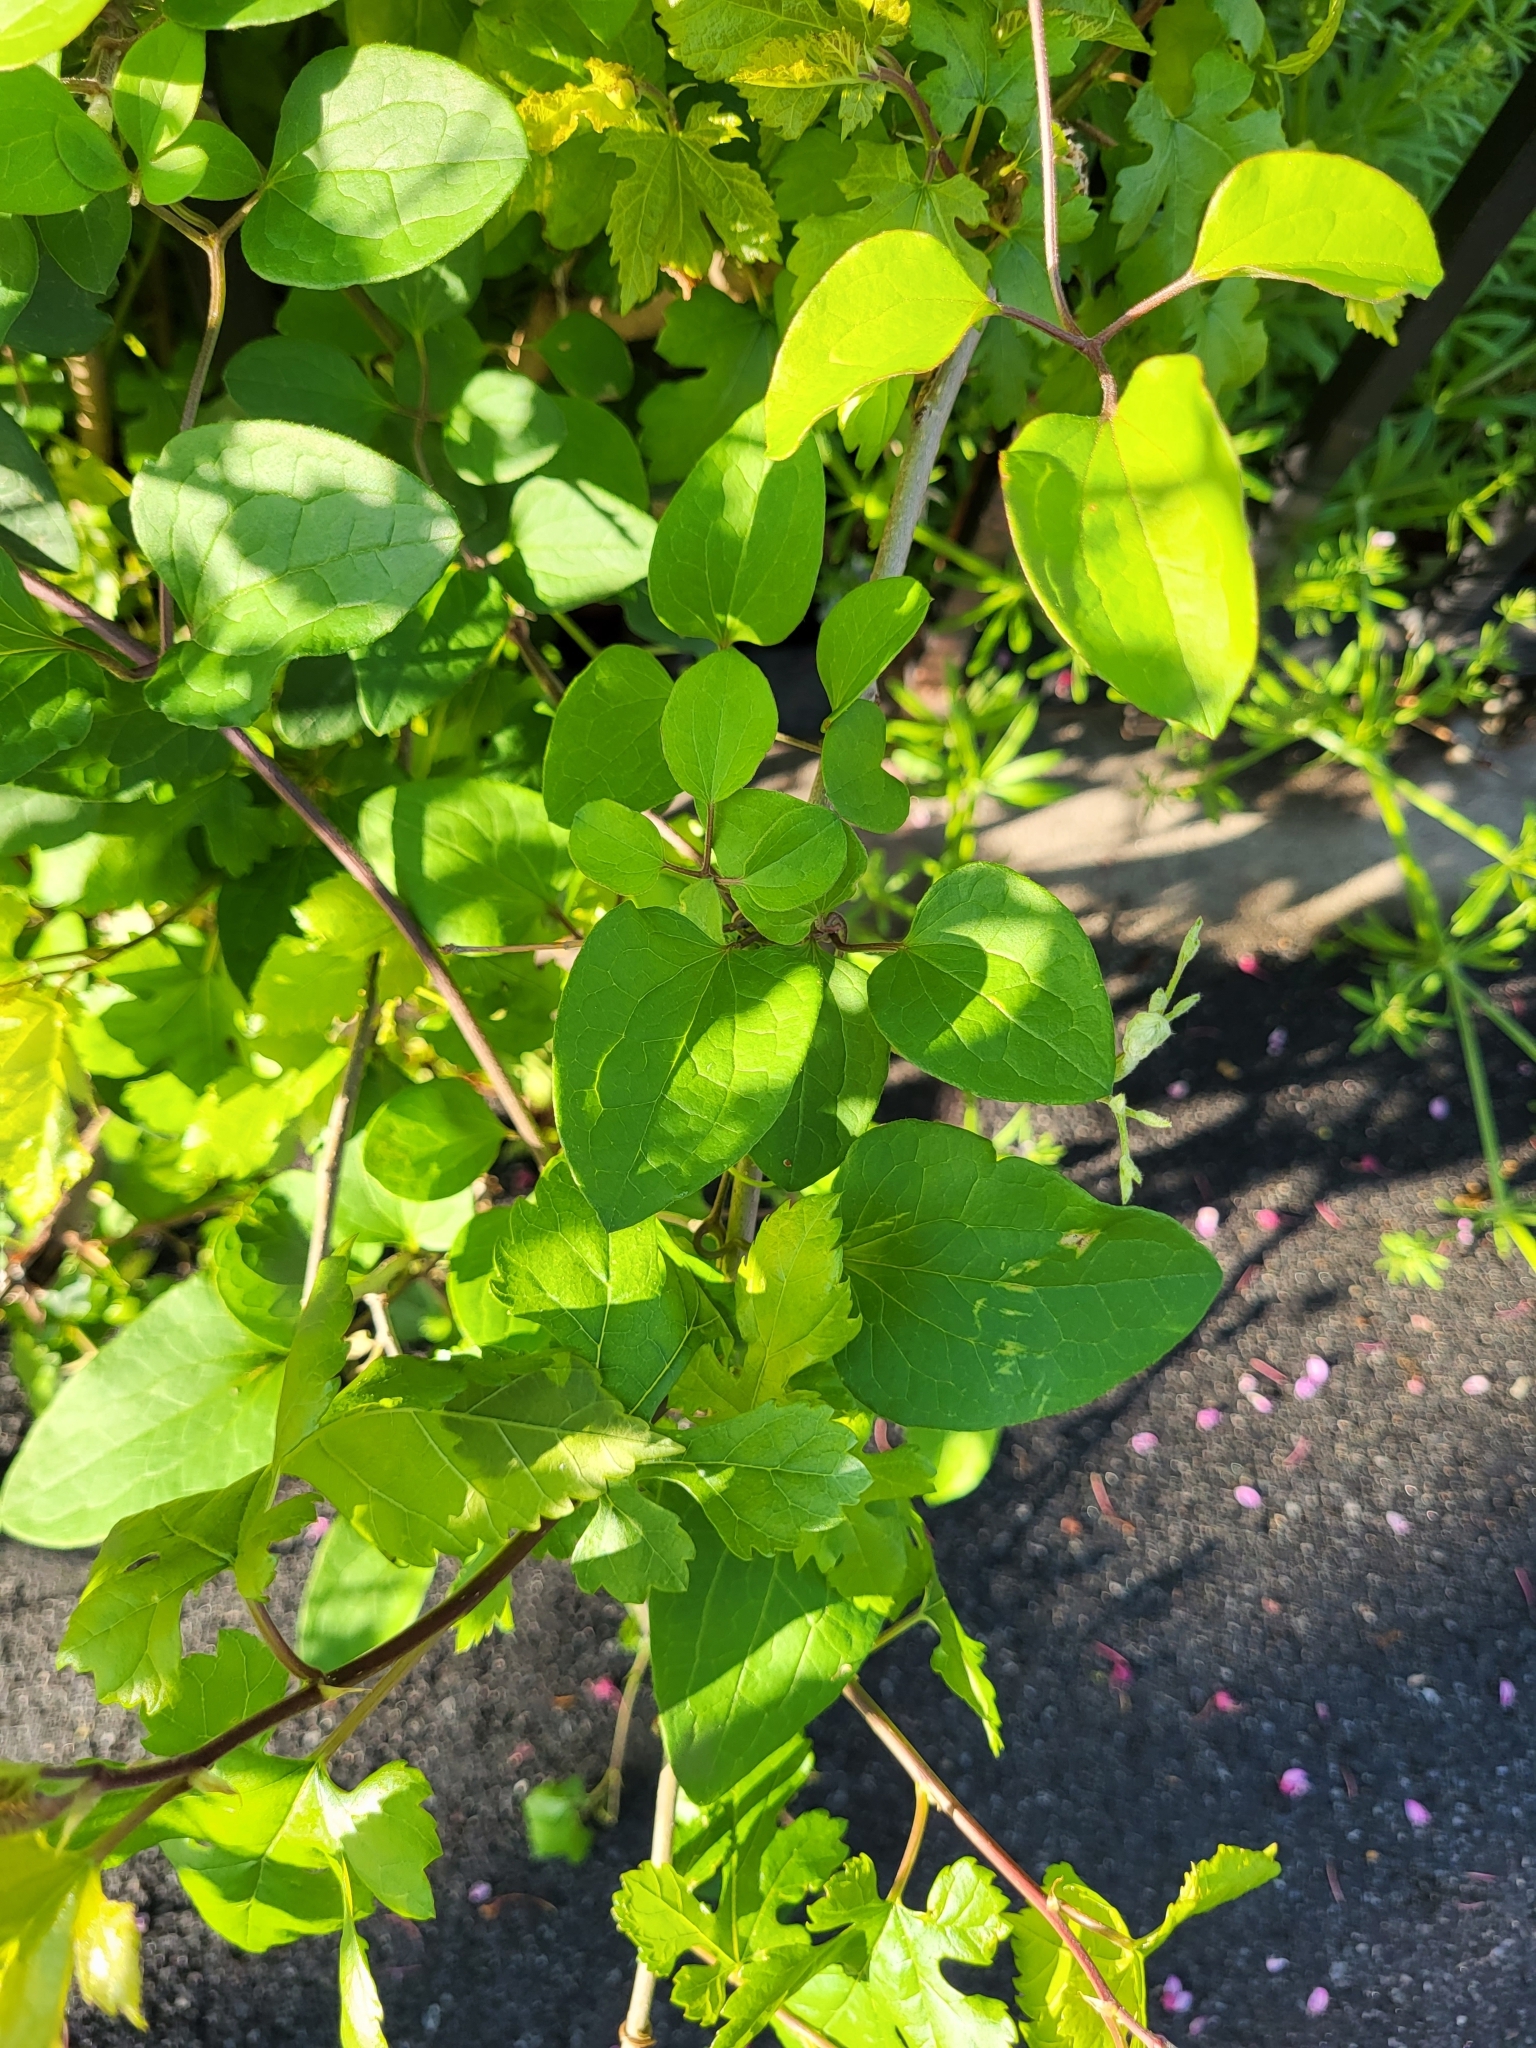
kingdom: Plantae
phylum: Tracheophyta
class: Magnoliopsida
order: Ranunculales
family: Ranunculaceae
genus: Clematis
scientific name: Clematis terniflora
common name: Sweet autumn clematis
